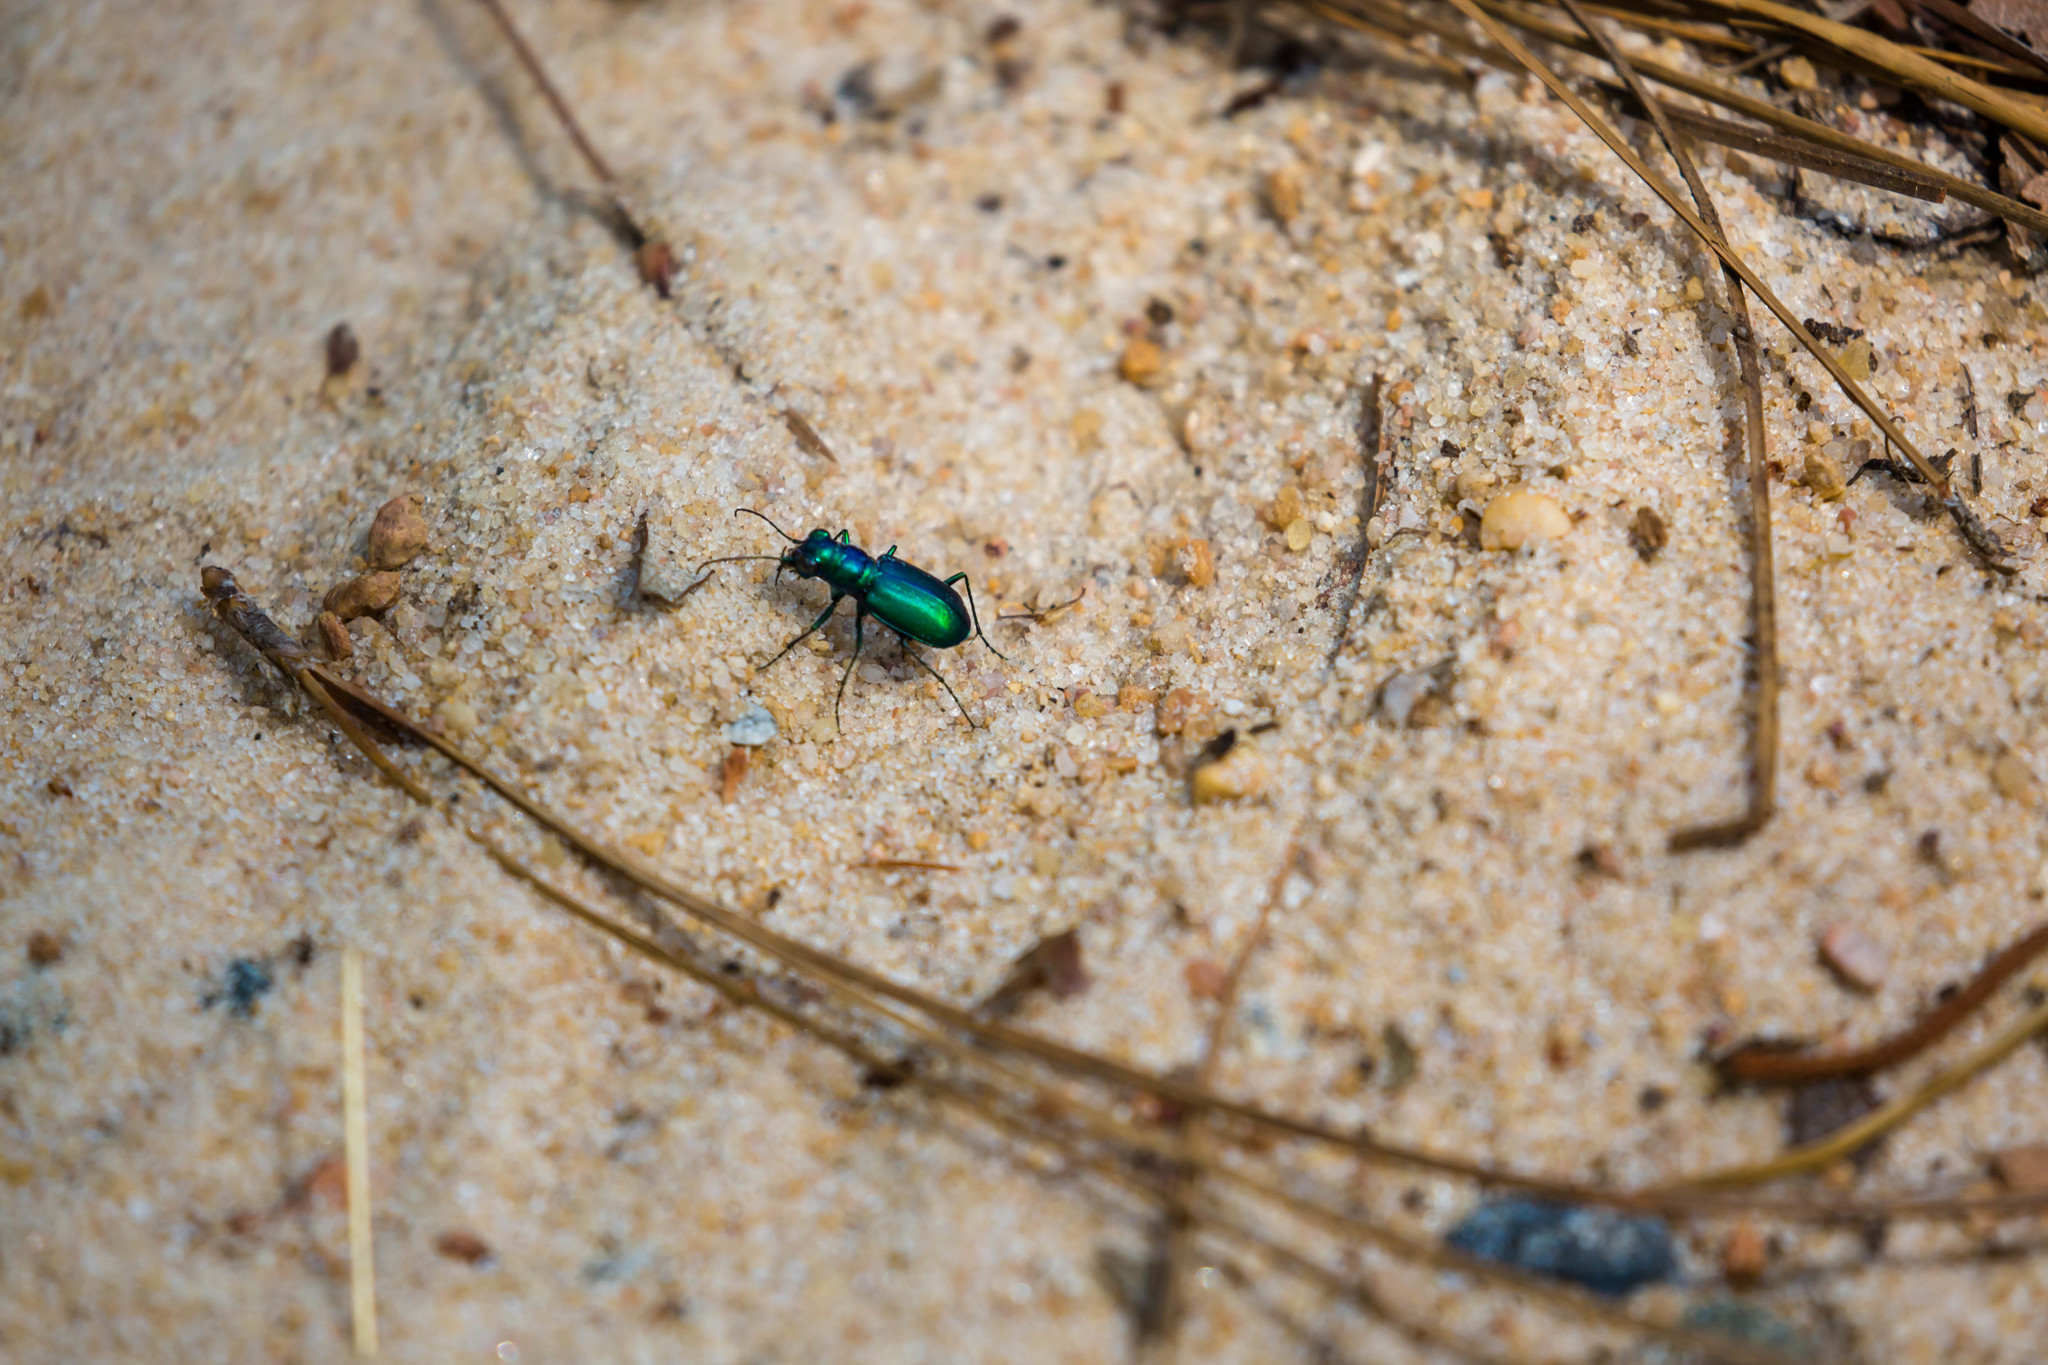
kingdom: Animalia
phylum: Arthropoda
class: Insecta
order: Coleoptera
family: Carabidae
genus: Cicindela
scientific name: Cicindela scutellaris
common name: Festive tiger beetle
